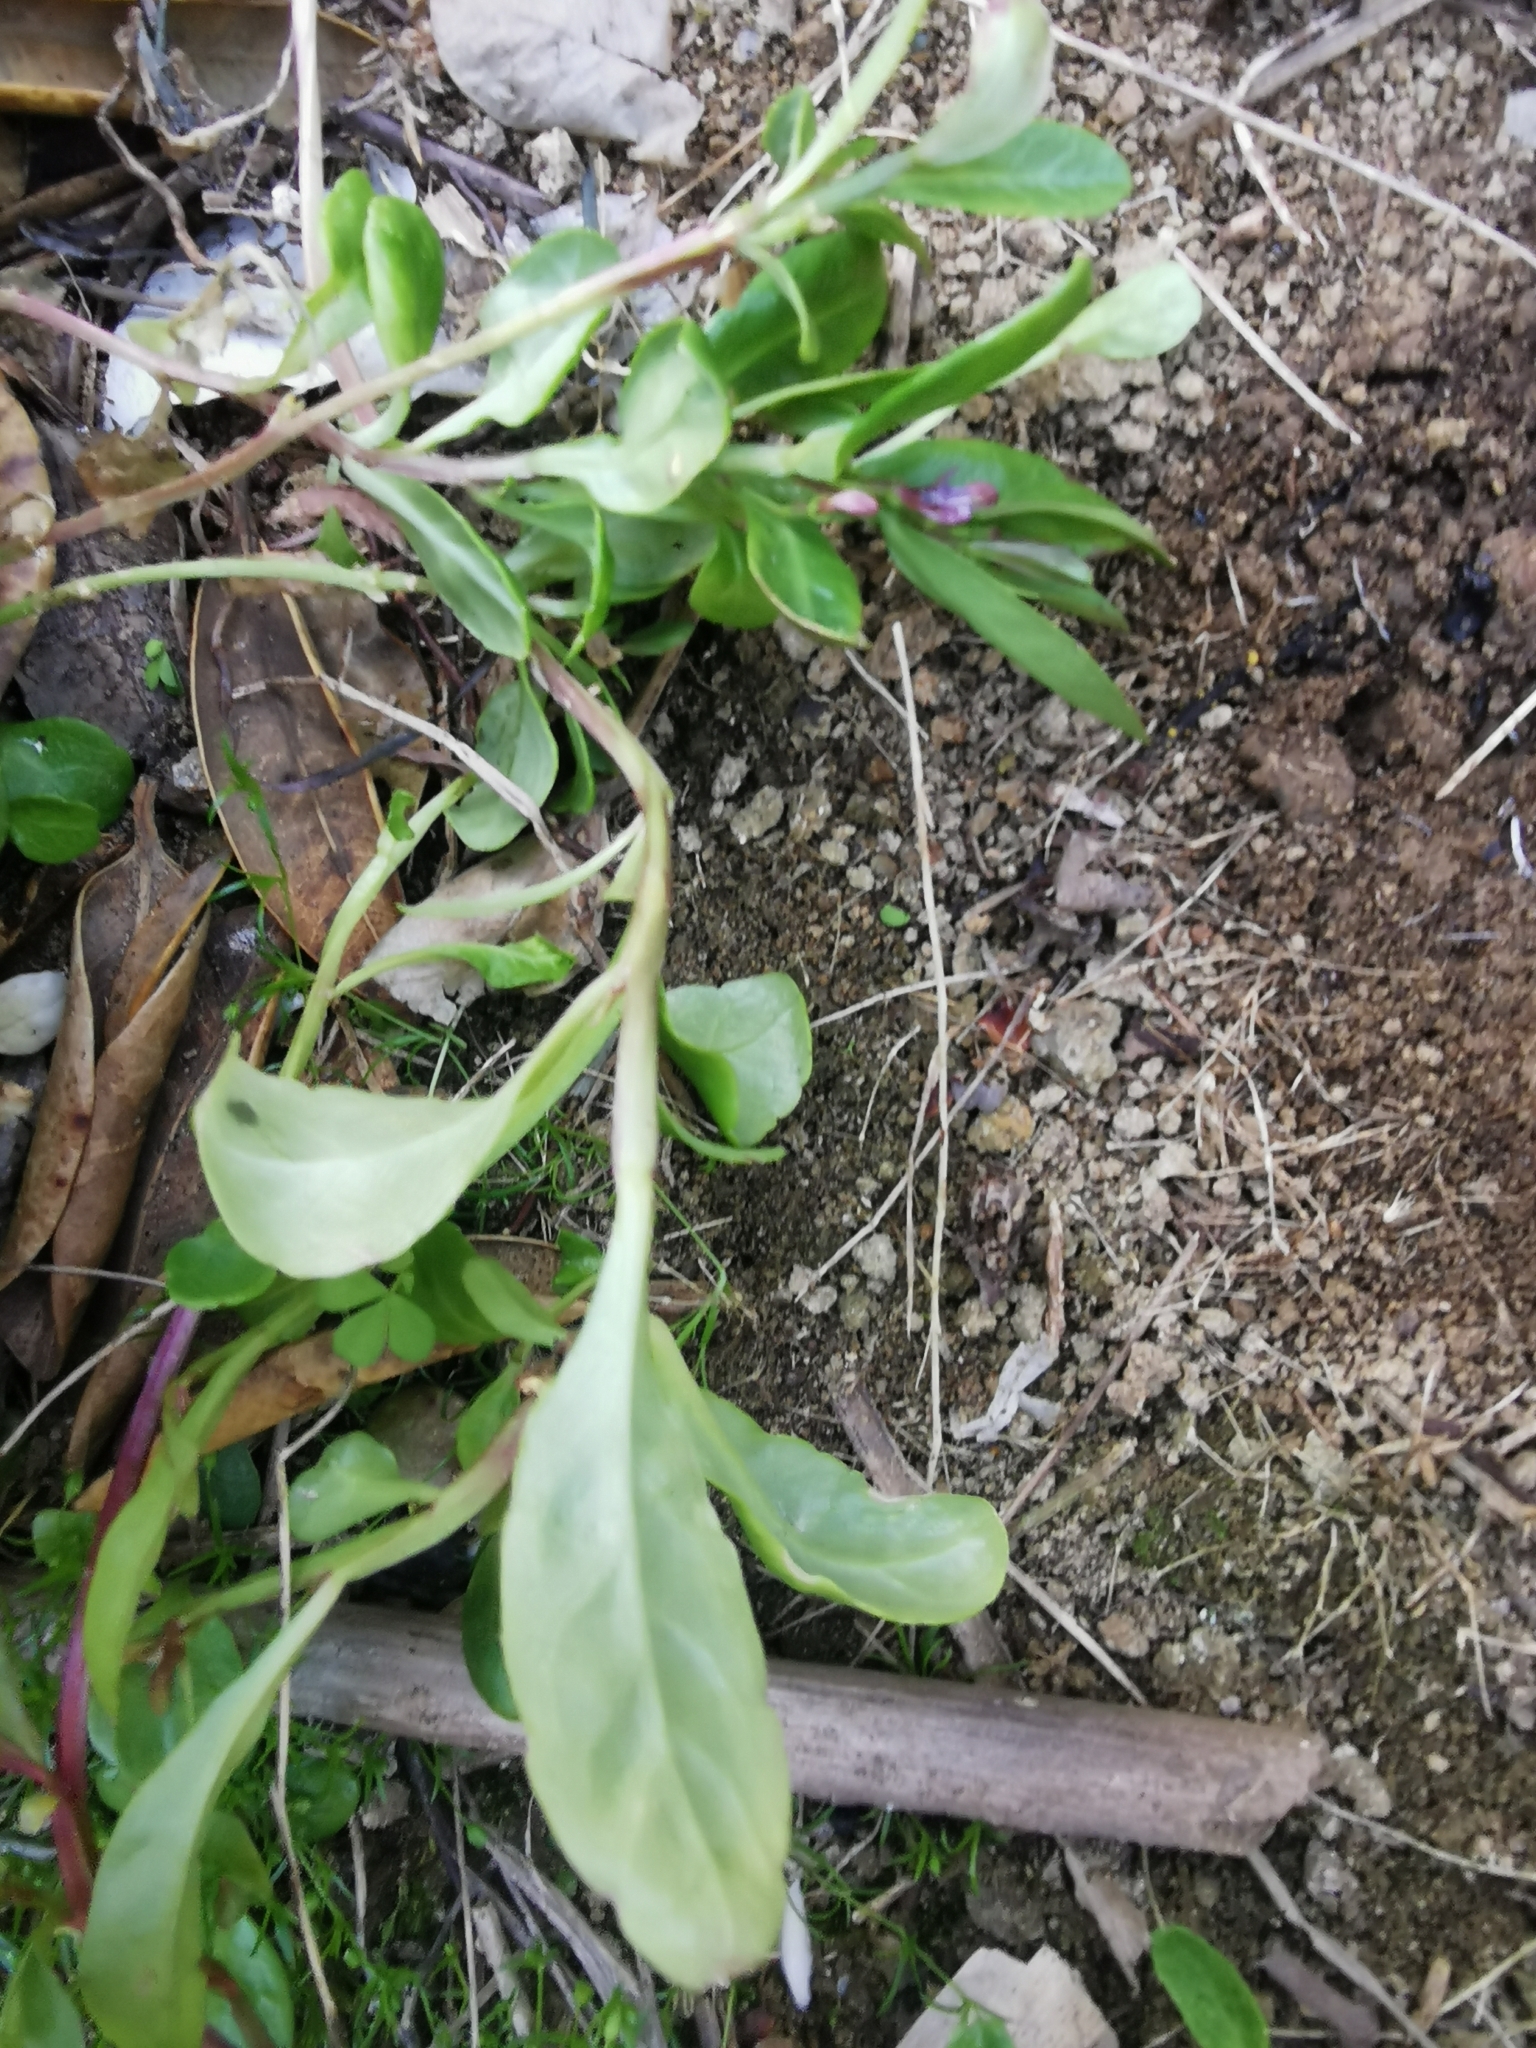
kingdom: Plantae
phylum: Tracheophyta
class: Magnoliopsida
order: Asterales
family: Campanulaceae
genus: Lobelia
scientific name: Lobelia anceps
